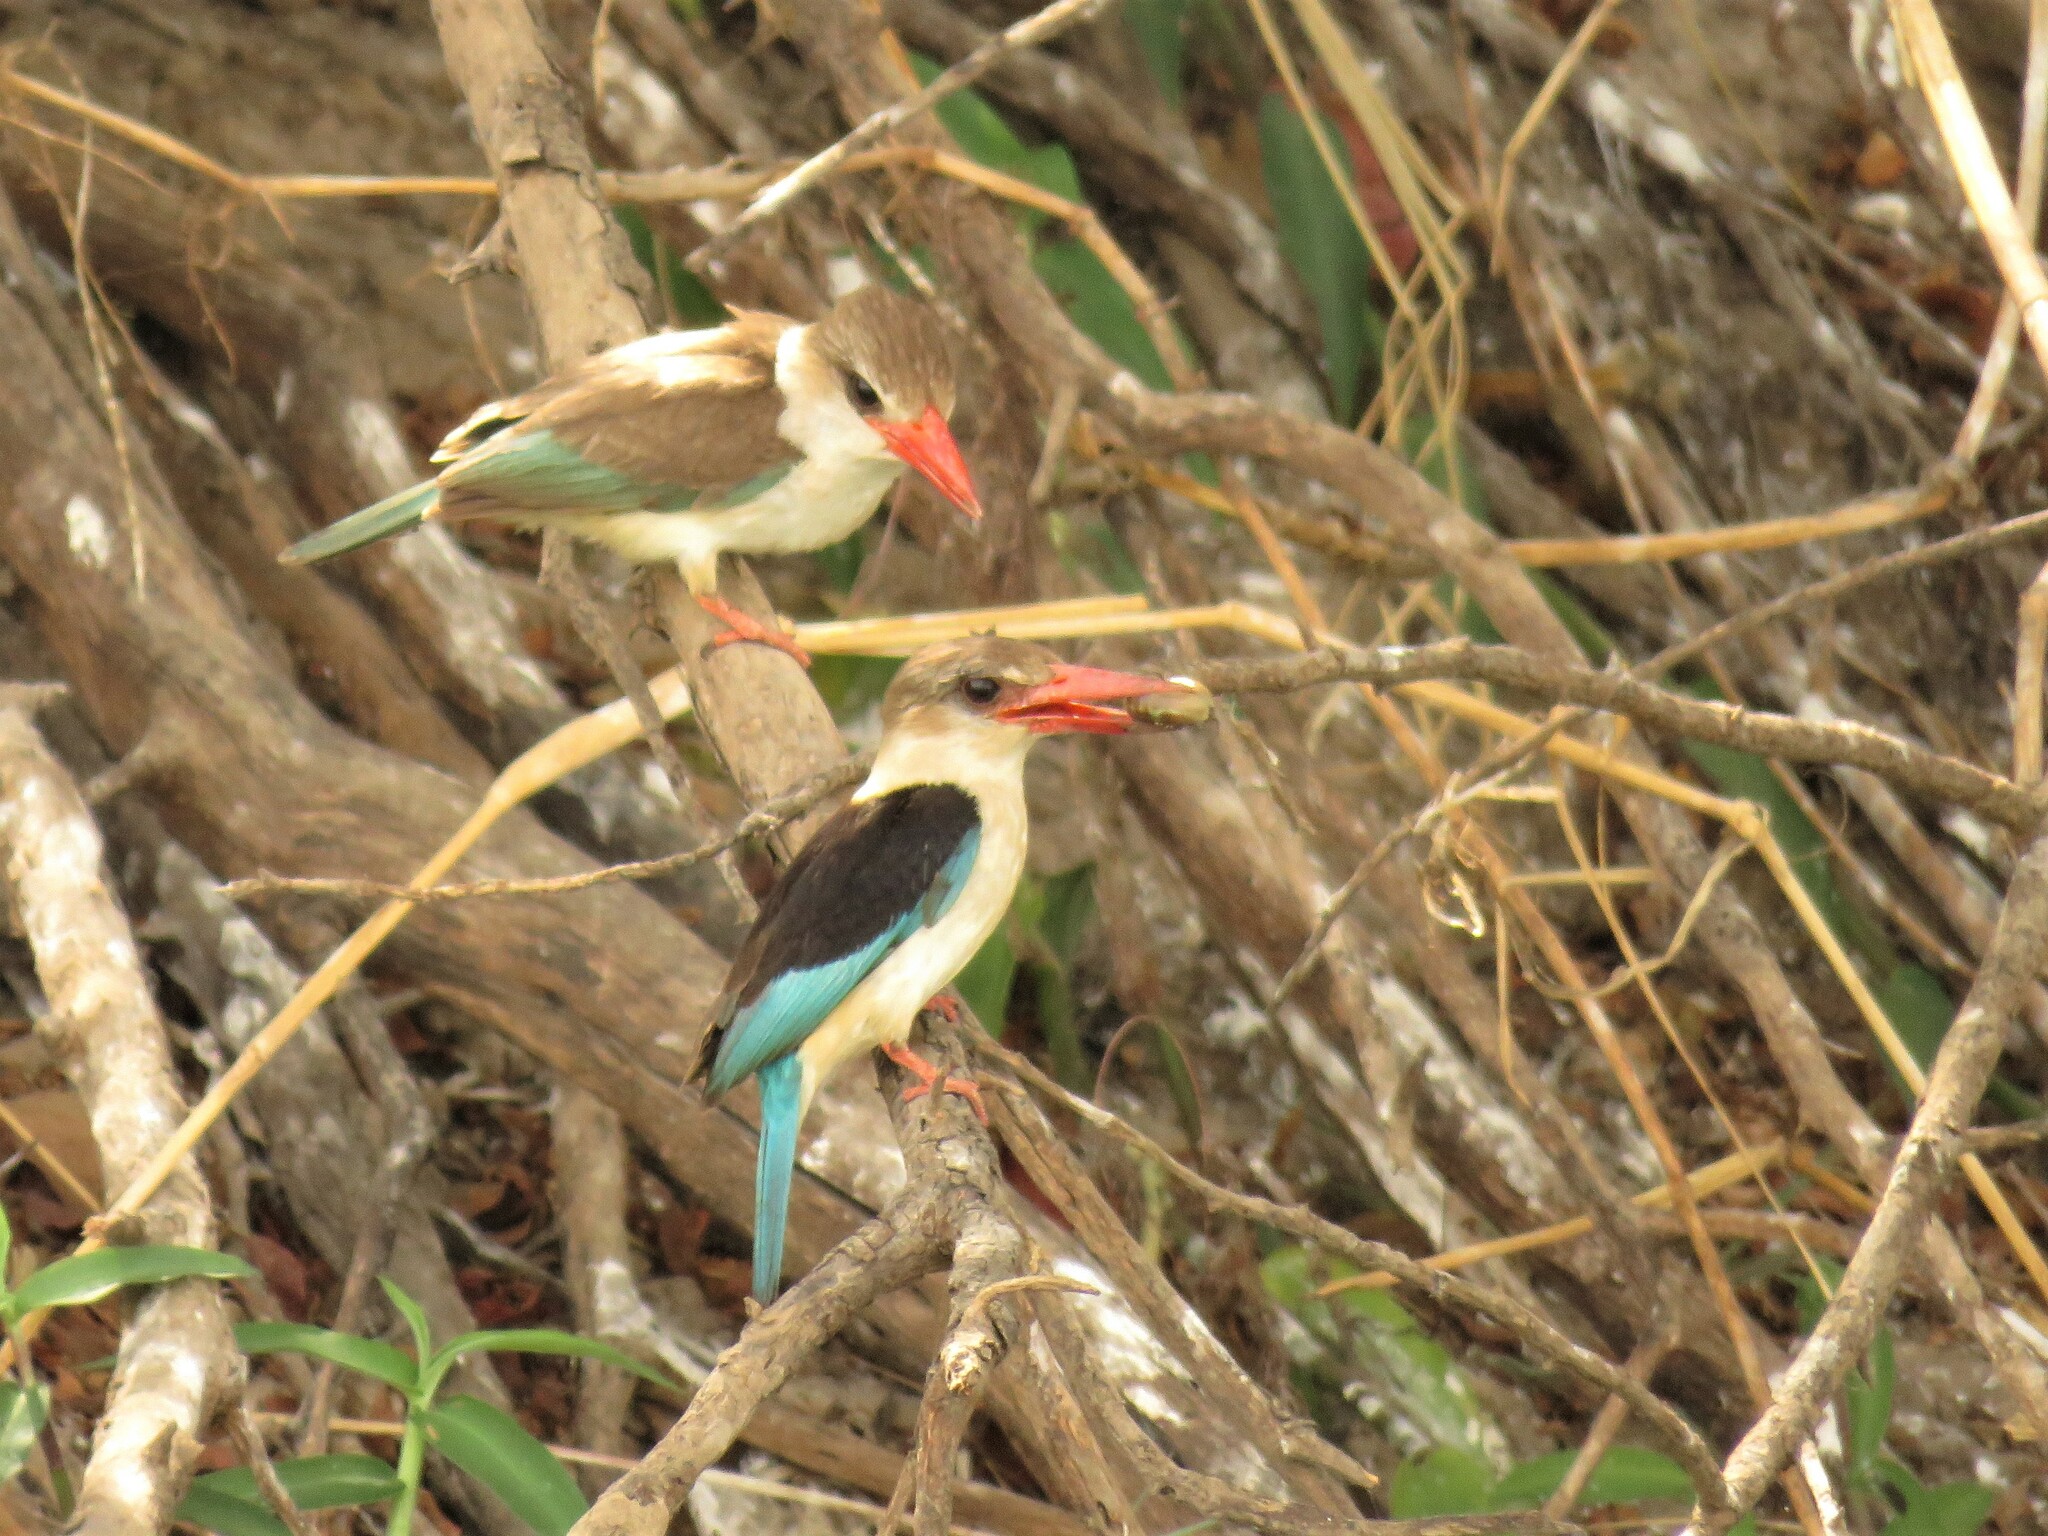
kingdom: Animalia
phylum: Chordata
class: Aves
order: Coraciiformes
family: Alcedinidae
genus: Halcyon
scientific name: Halcyon albiventris
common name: Brown-hooded kingfisher
